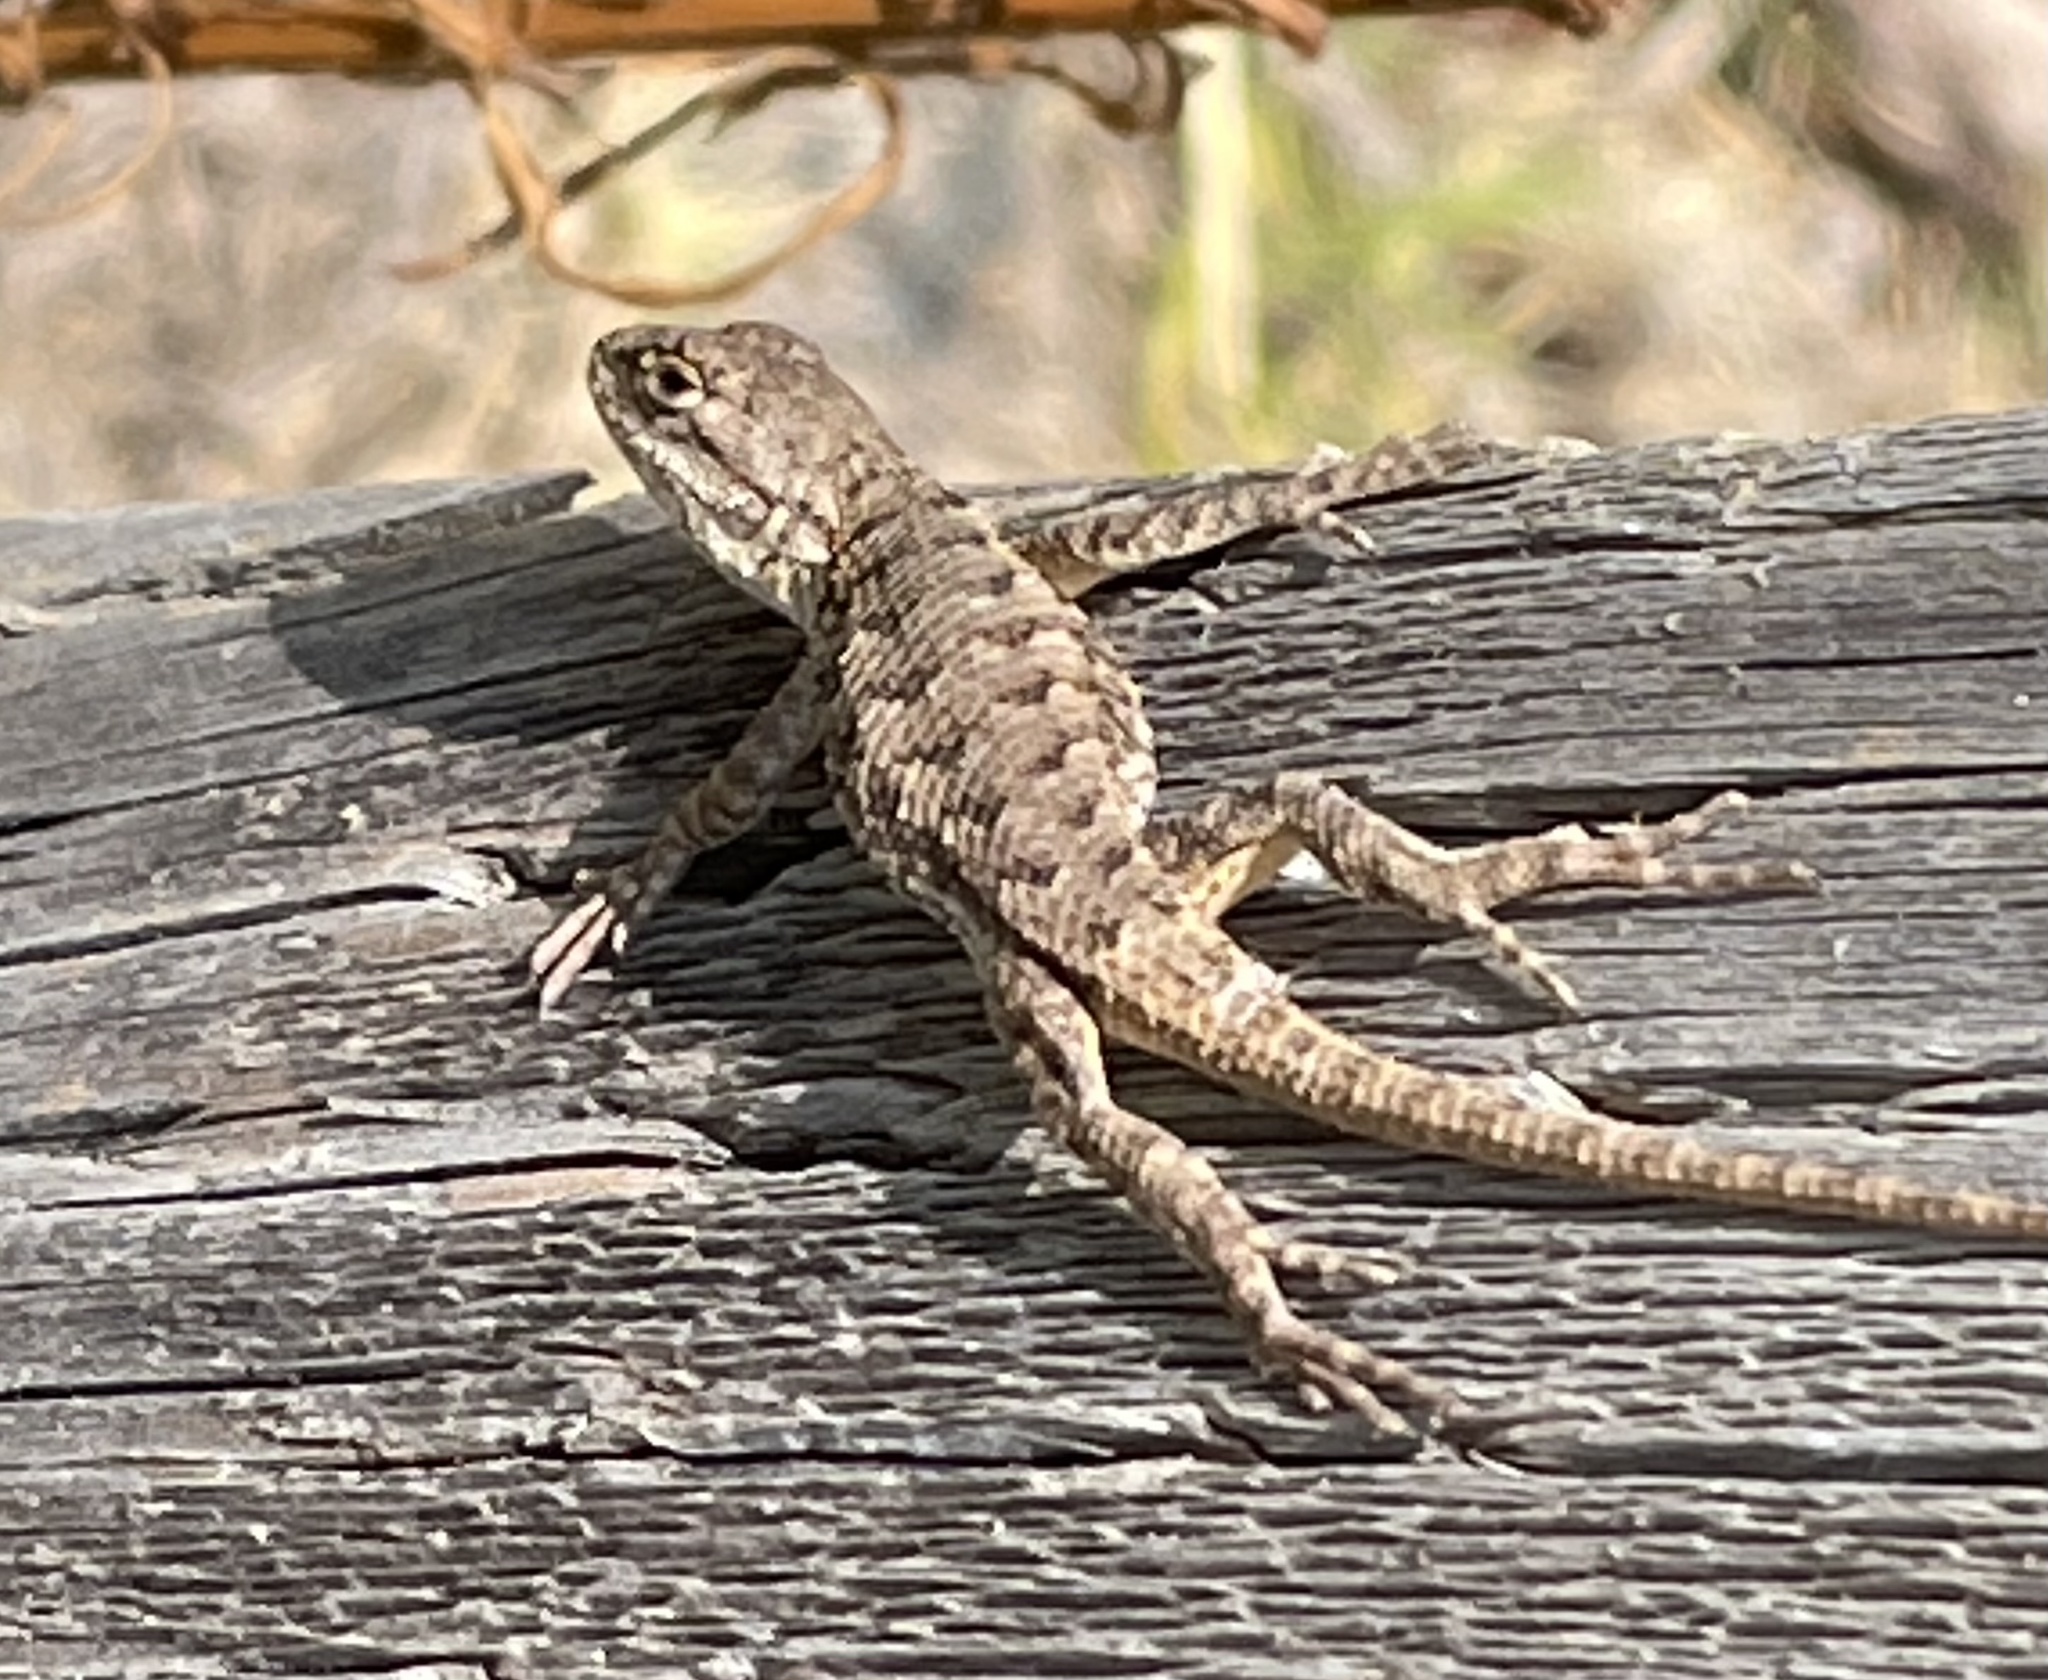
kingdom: Animalia
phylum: Chordata
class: Squamata
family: Phrynosomatidae
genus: Sceloporus
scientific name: Sceloporus occidentalis
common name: Western fence lizard
